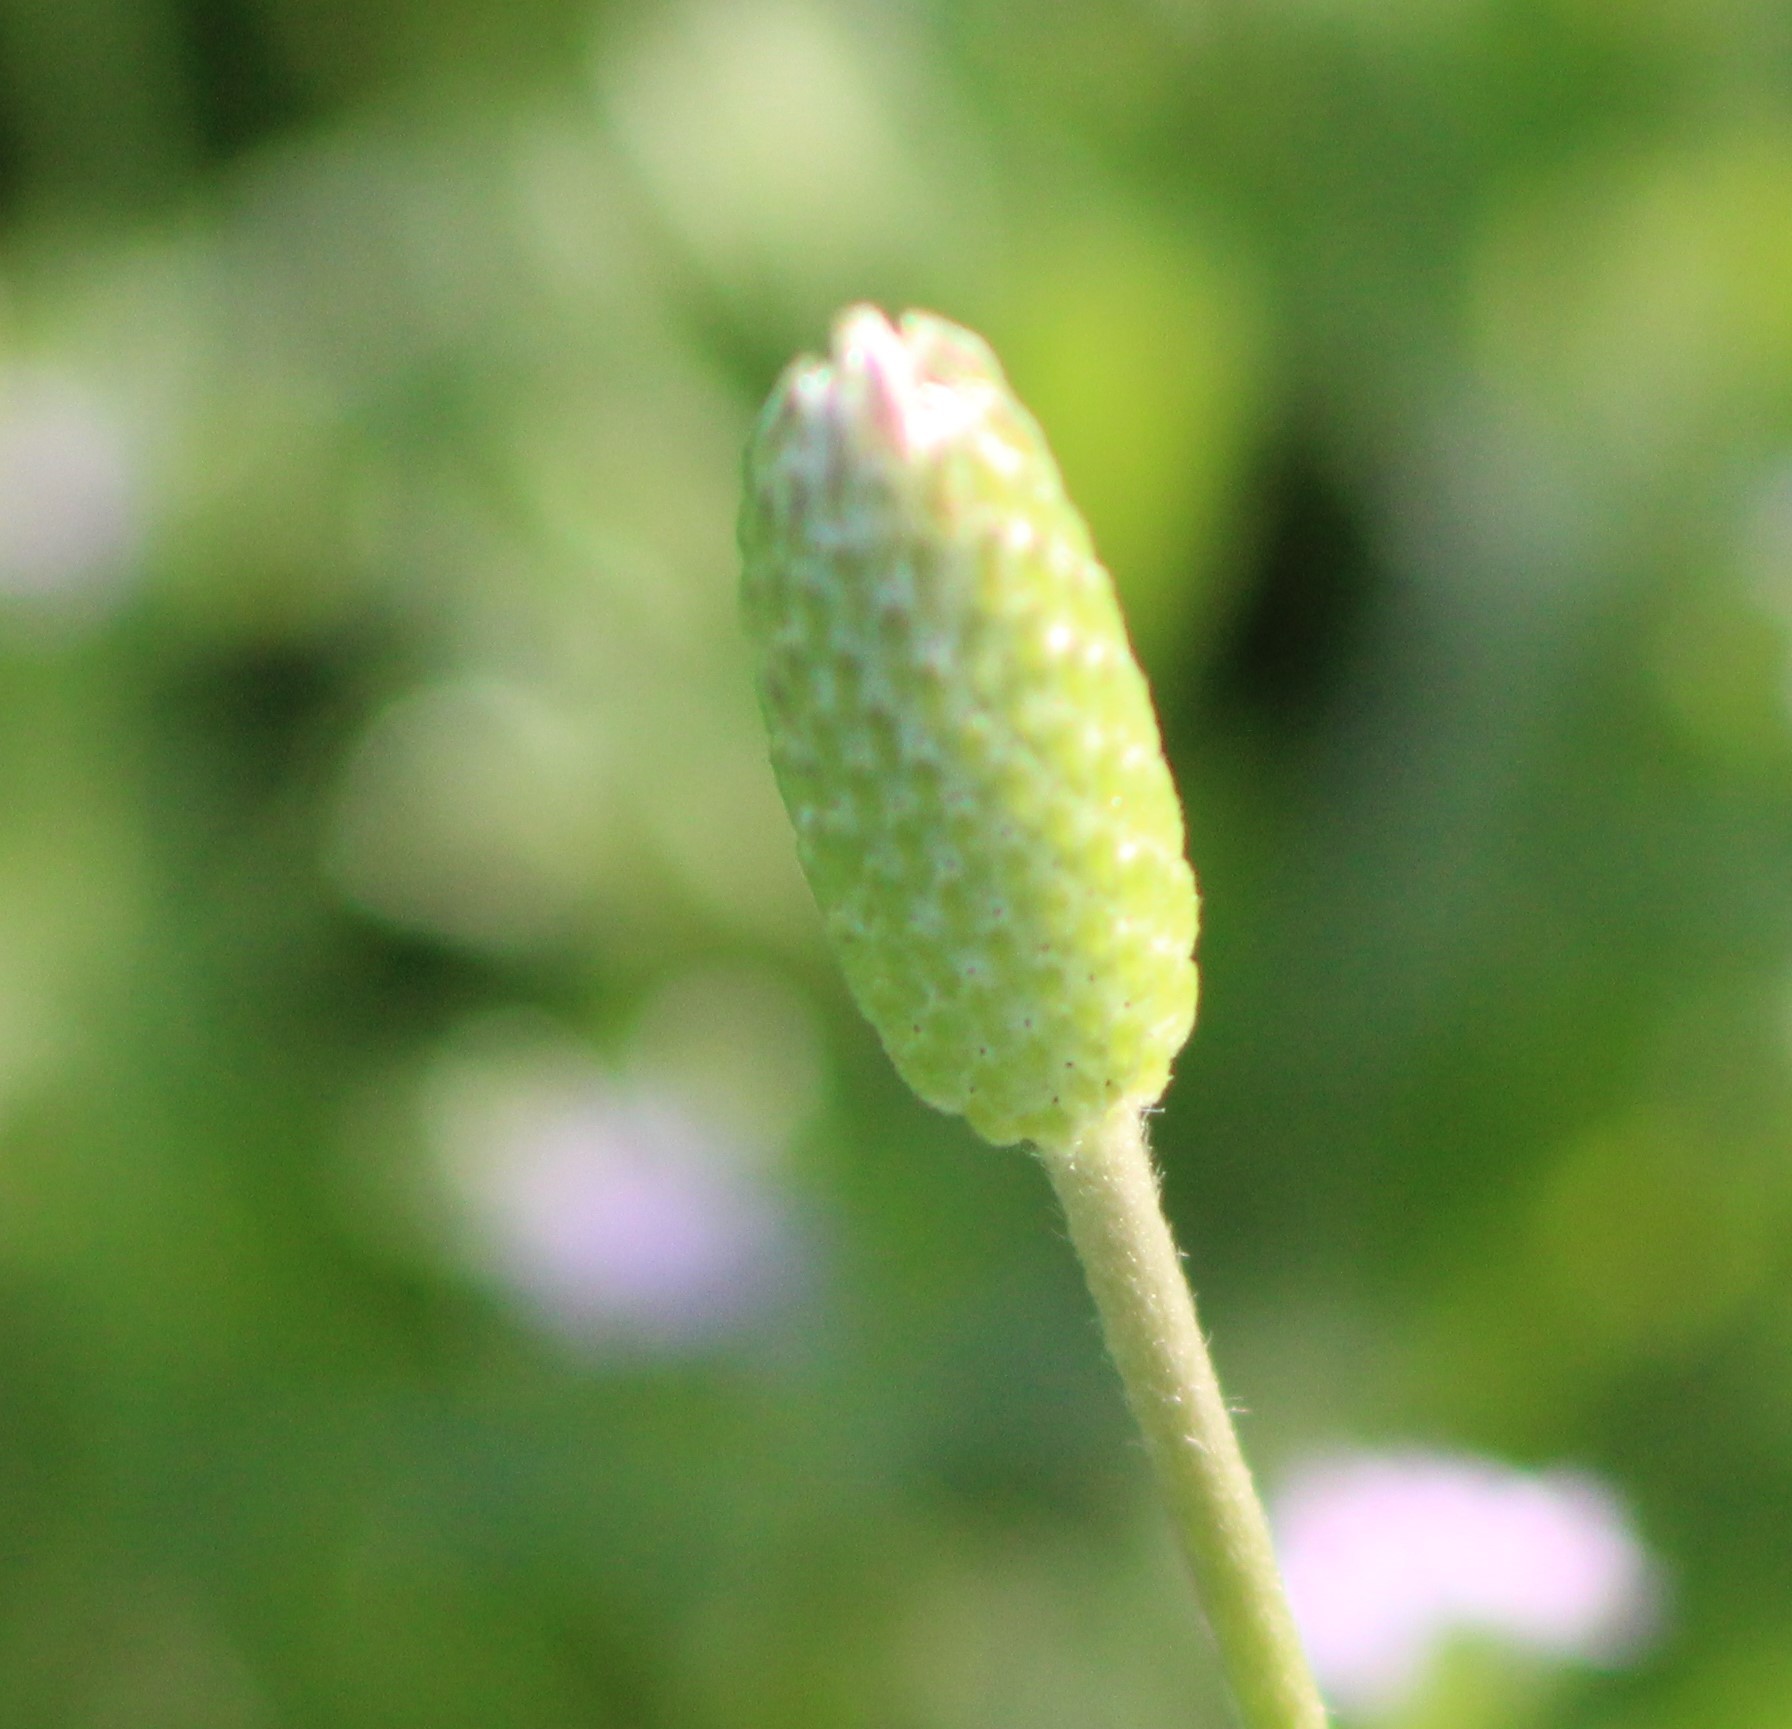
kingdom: Plantae
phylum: Tracheophyta
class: Magnoliopsida
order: Ranunculales
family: Ranunculaceae
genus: Anemone
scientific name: Anemone berlandieri
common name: Ten-petal anemone
